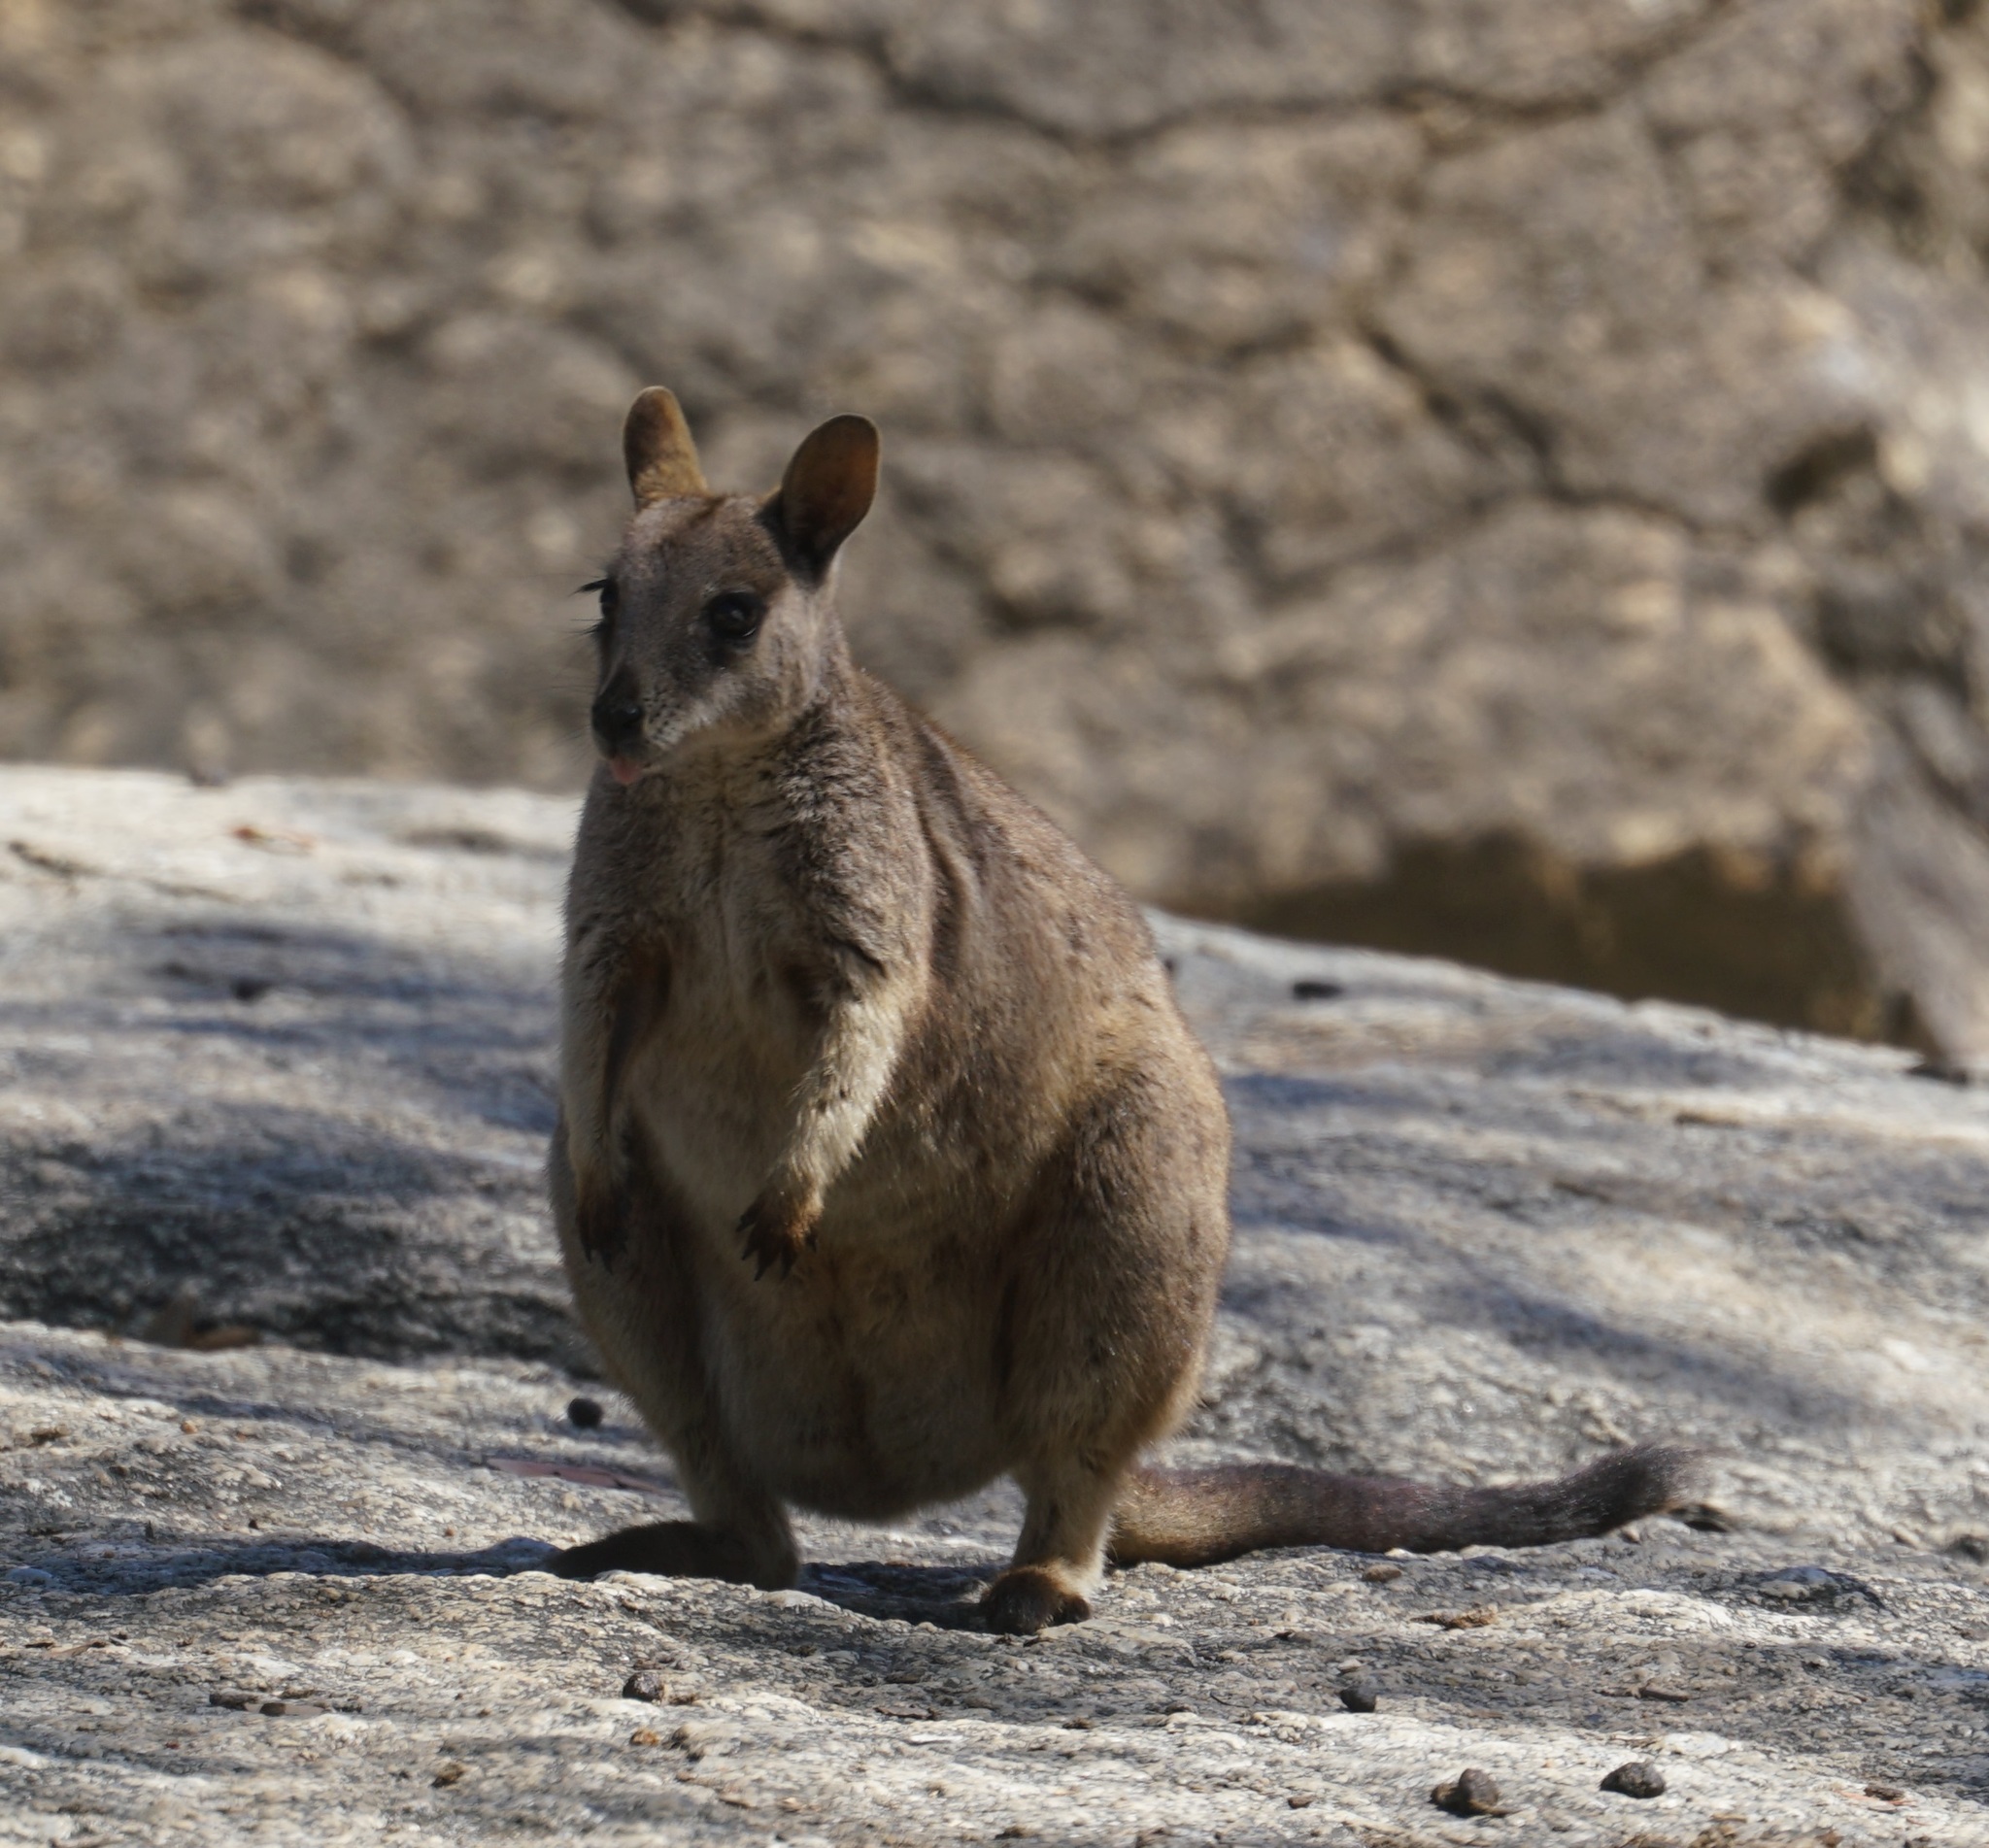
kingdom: Animalia
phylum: Chordata
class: Mammalia
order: Diprotodontia
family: Macropodidae
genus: Petrogale
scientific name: Petrogale mareeba
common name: Mareeba rock-wallaby
